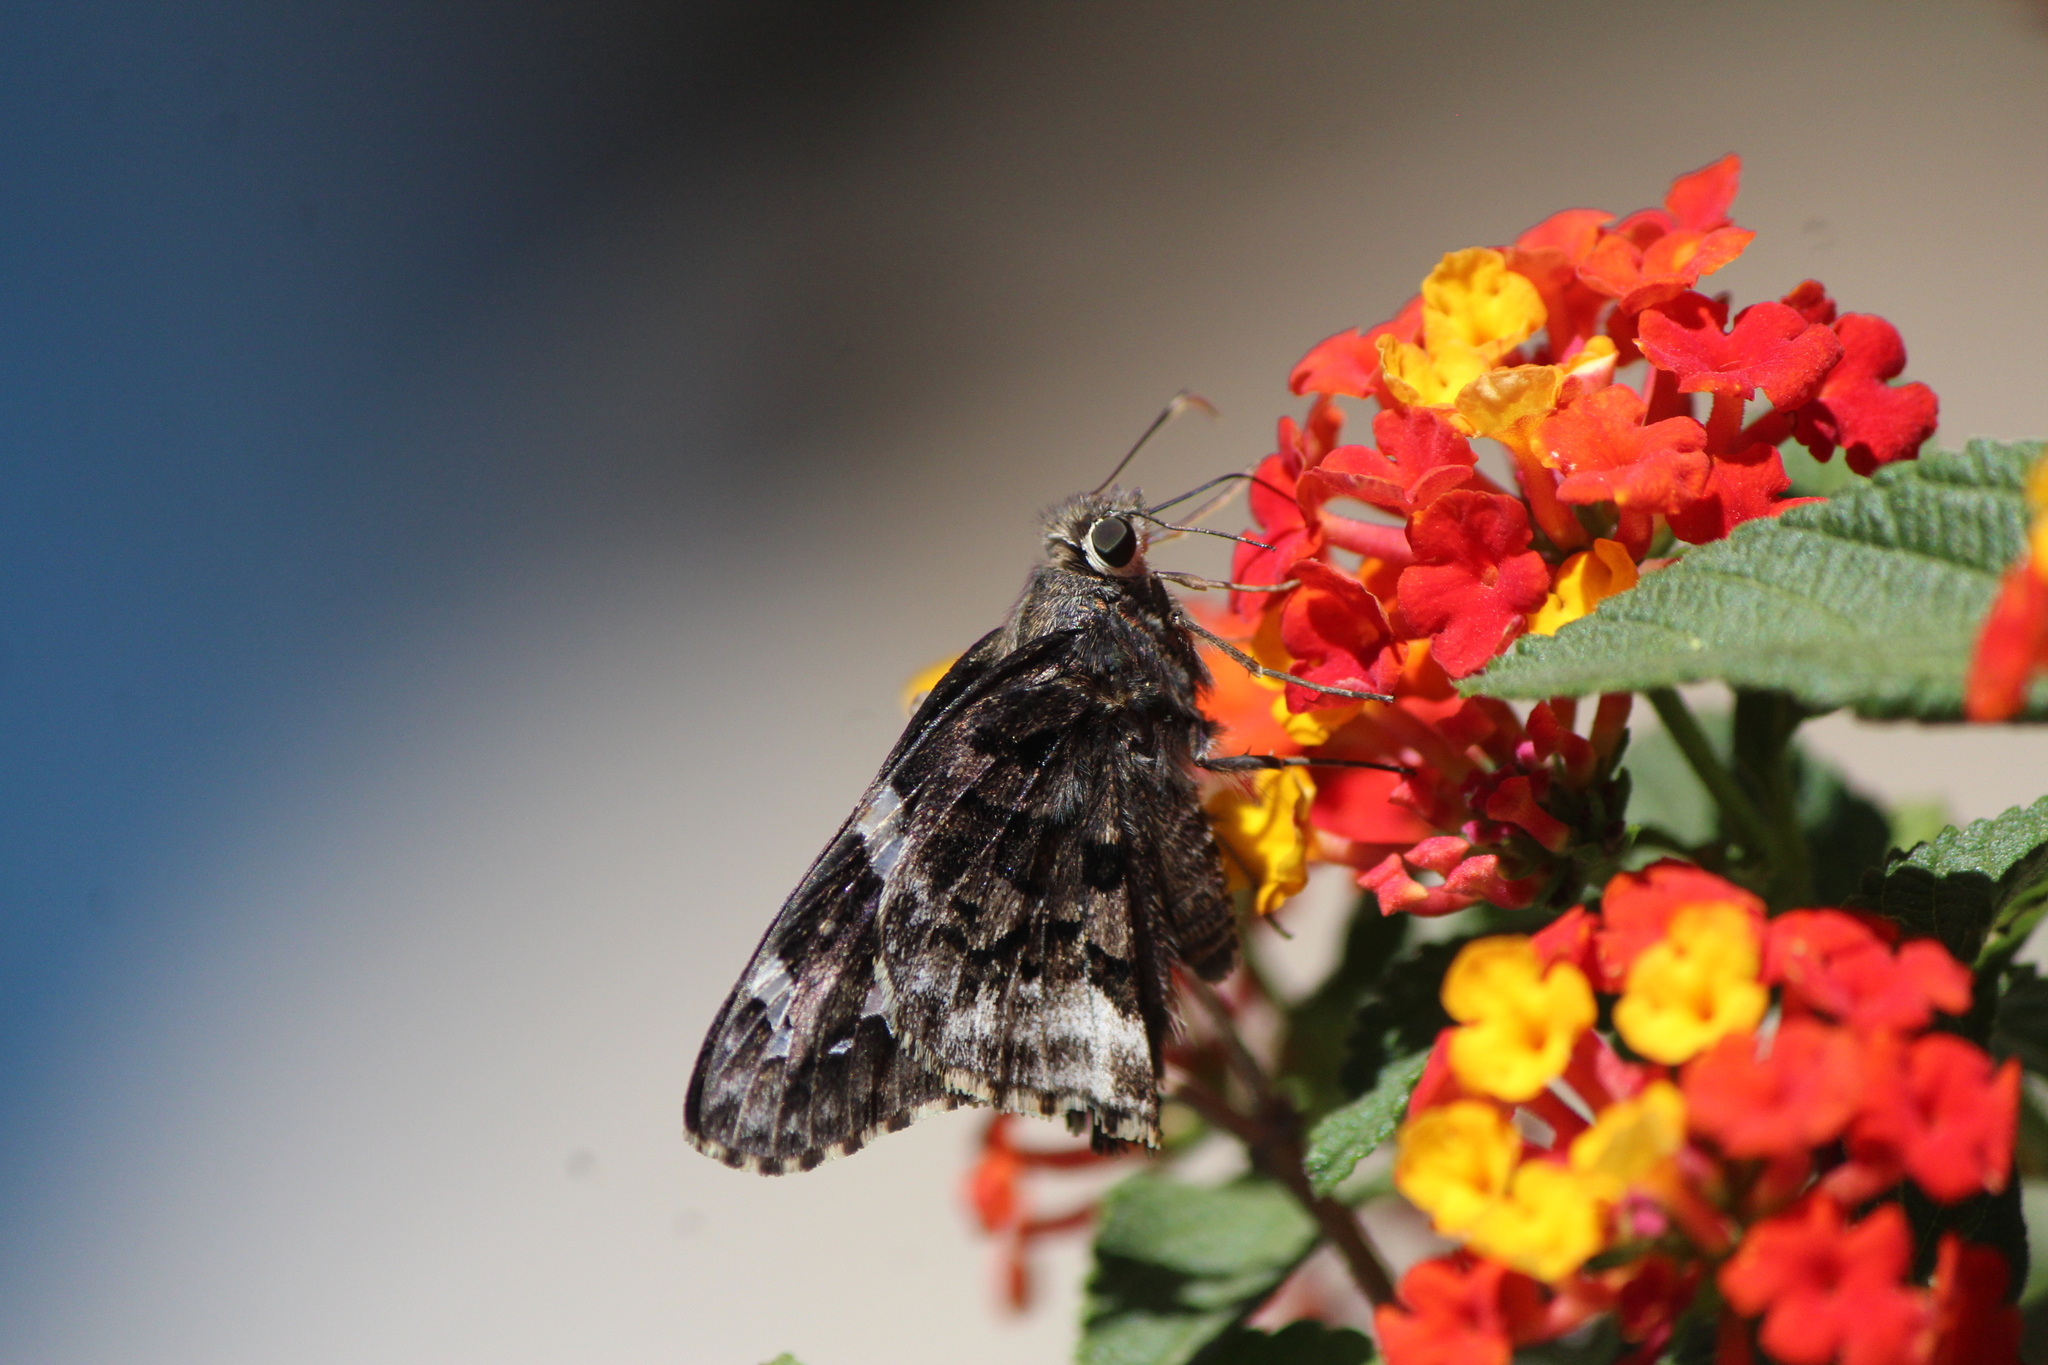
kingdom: Animalia
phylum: Arthropoda
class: Insecta
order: Lepidoptera
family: Hesperiidae
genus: Codatractus
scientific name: Codatractus bryaxis
